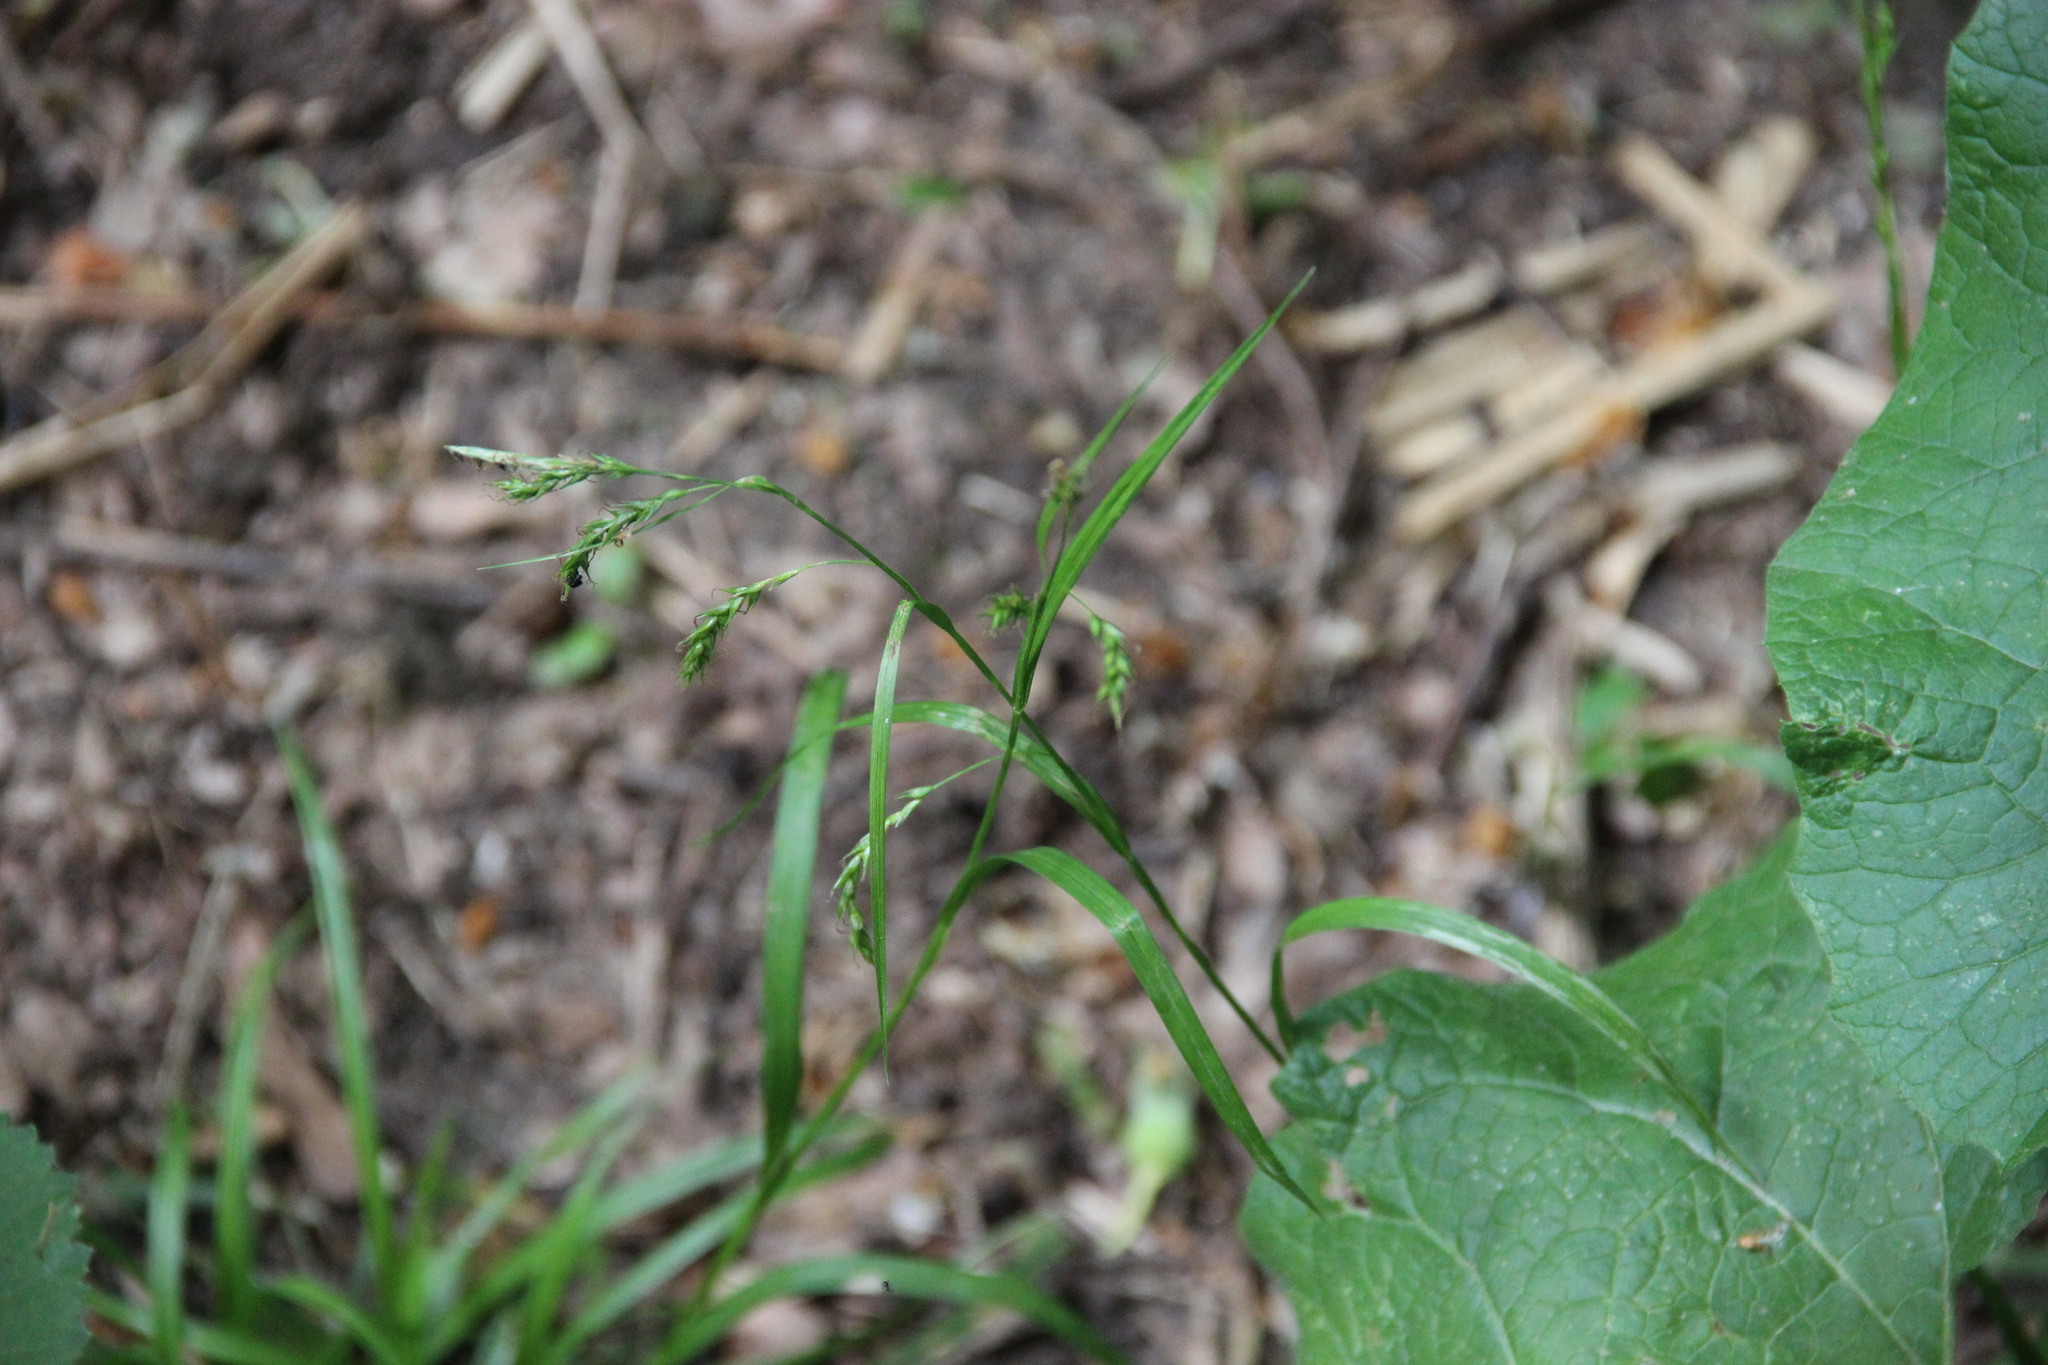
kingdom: Plantae
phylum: Tracheophyta
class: Liliopsida
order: Poales
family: Cyperaceae
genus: Carex
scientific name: Carex sylvatica
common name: Wood-sedge
